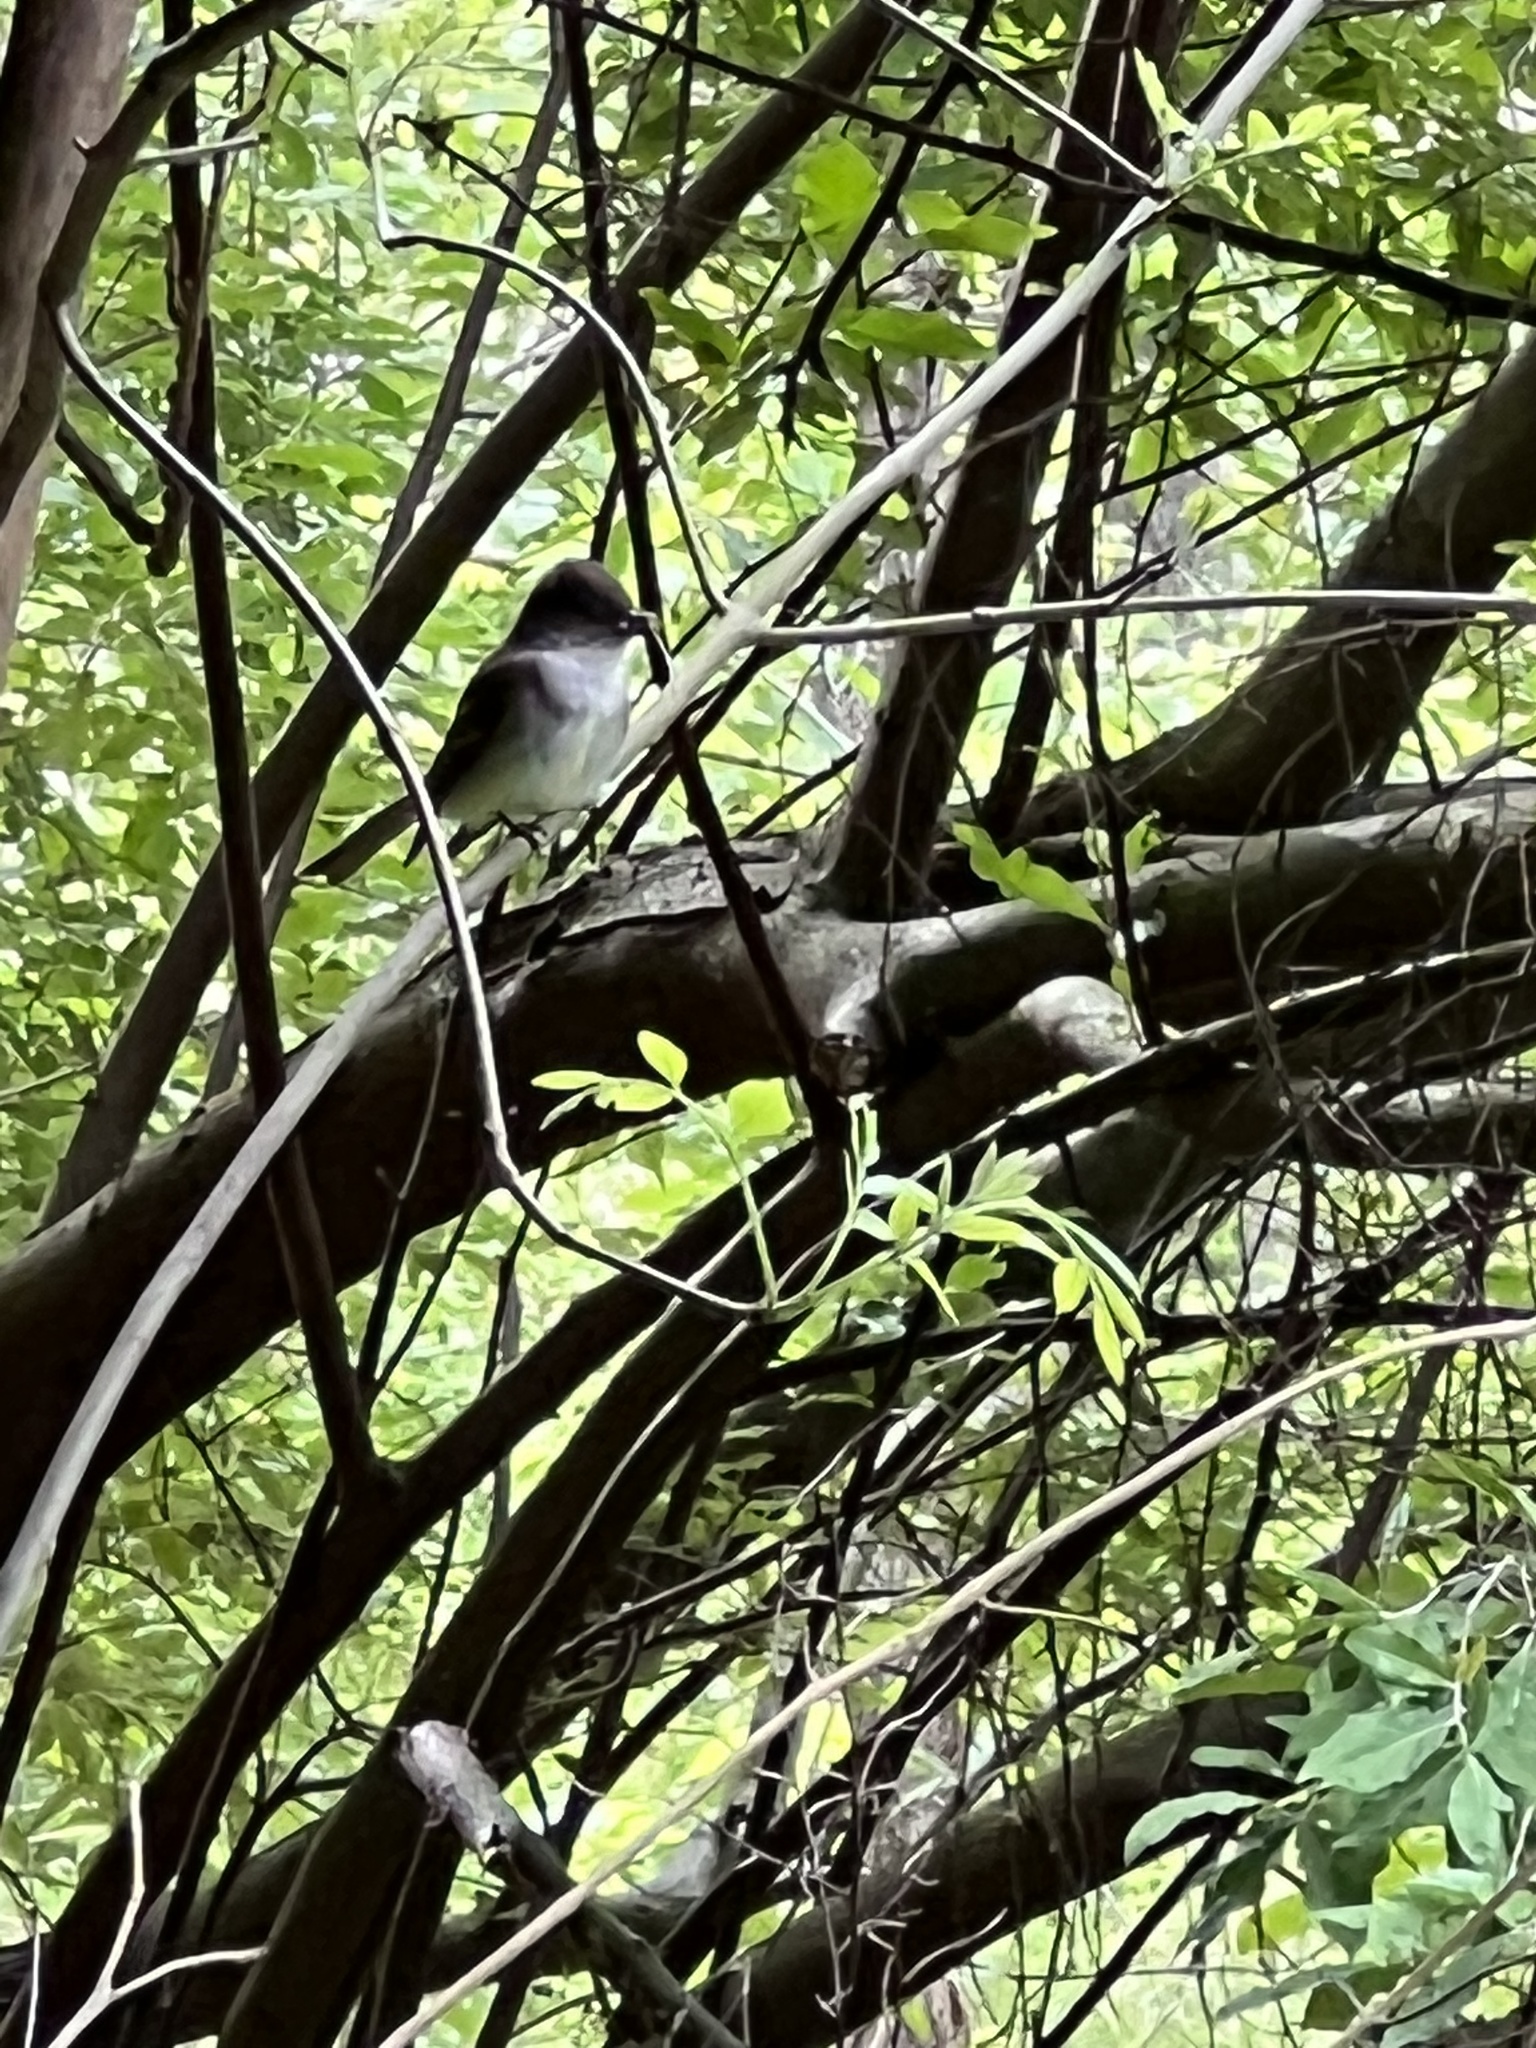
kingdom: Animalia
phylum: Chordata
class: Aves
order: Passeriformes
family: Tyrannidae
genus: Sayornis
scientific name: Sayornis phoebe
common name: Eastern phoebe
